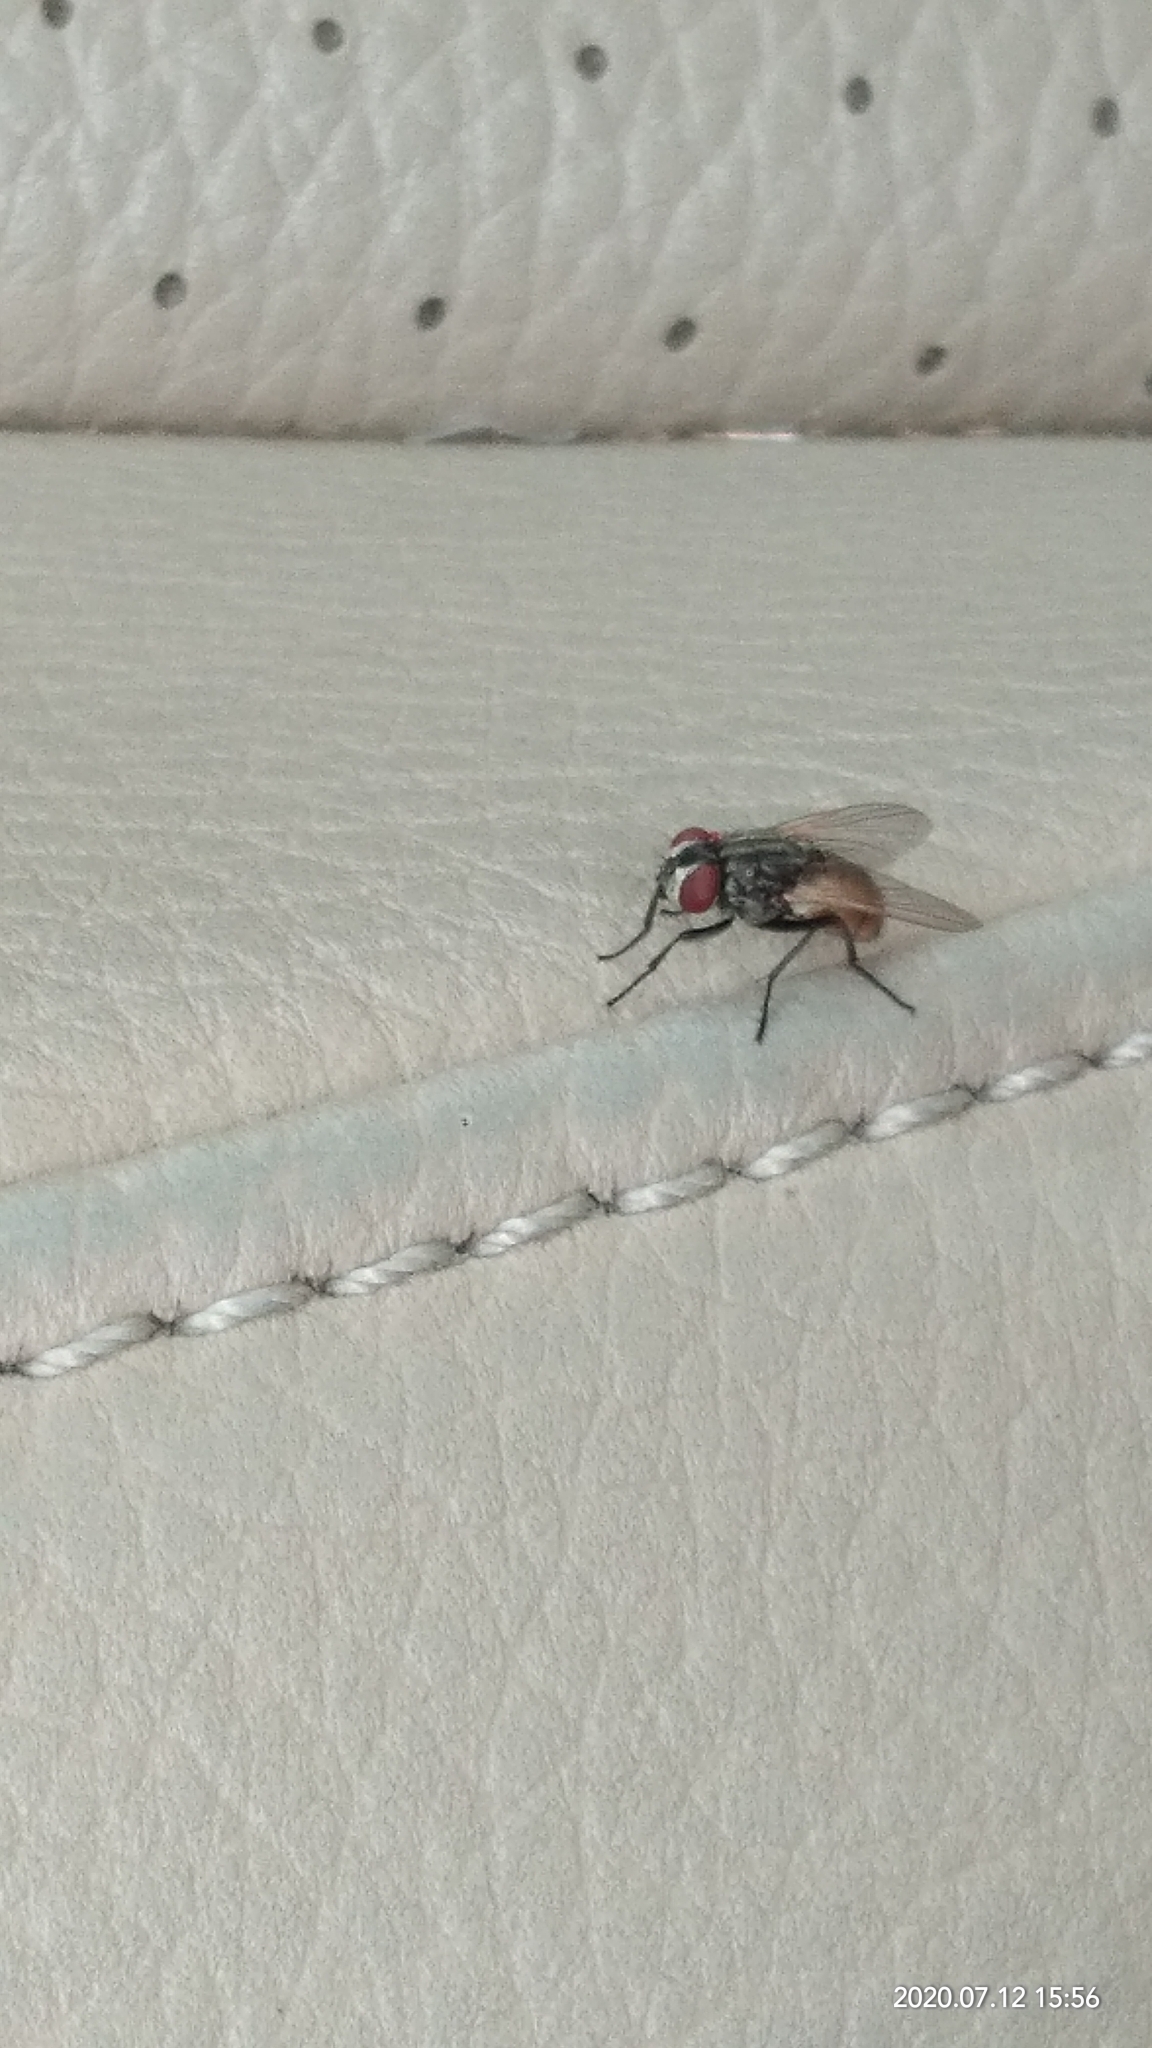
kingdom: Animalia
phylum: Arthropoda
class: Insecta
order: Diptera
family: Muscidae
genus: Musca
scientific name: Musca domestica
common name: House fly
